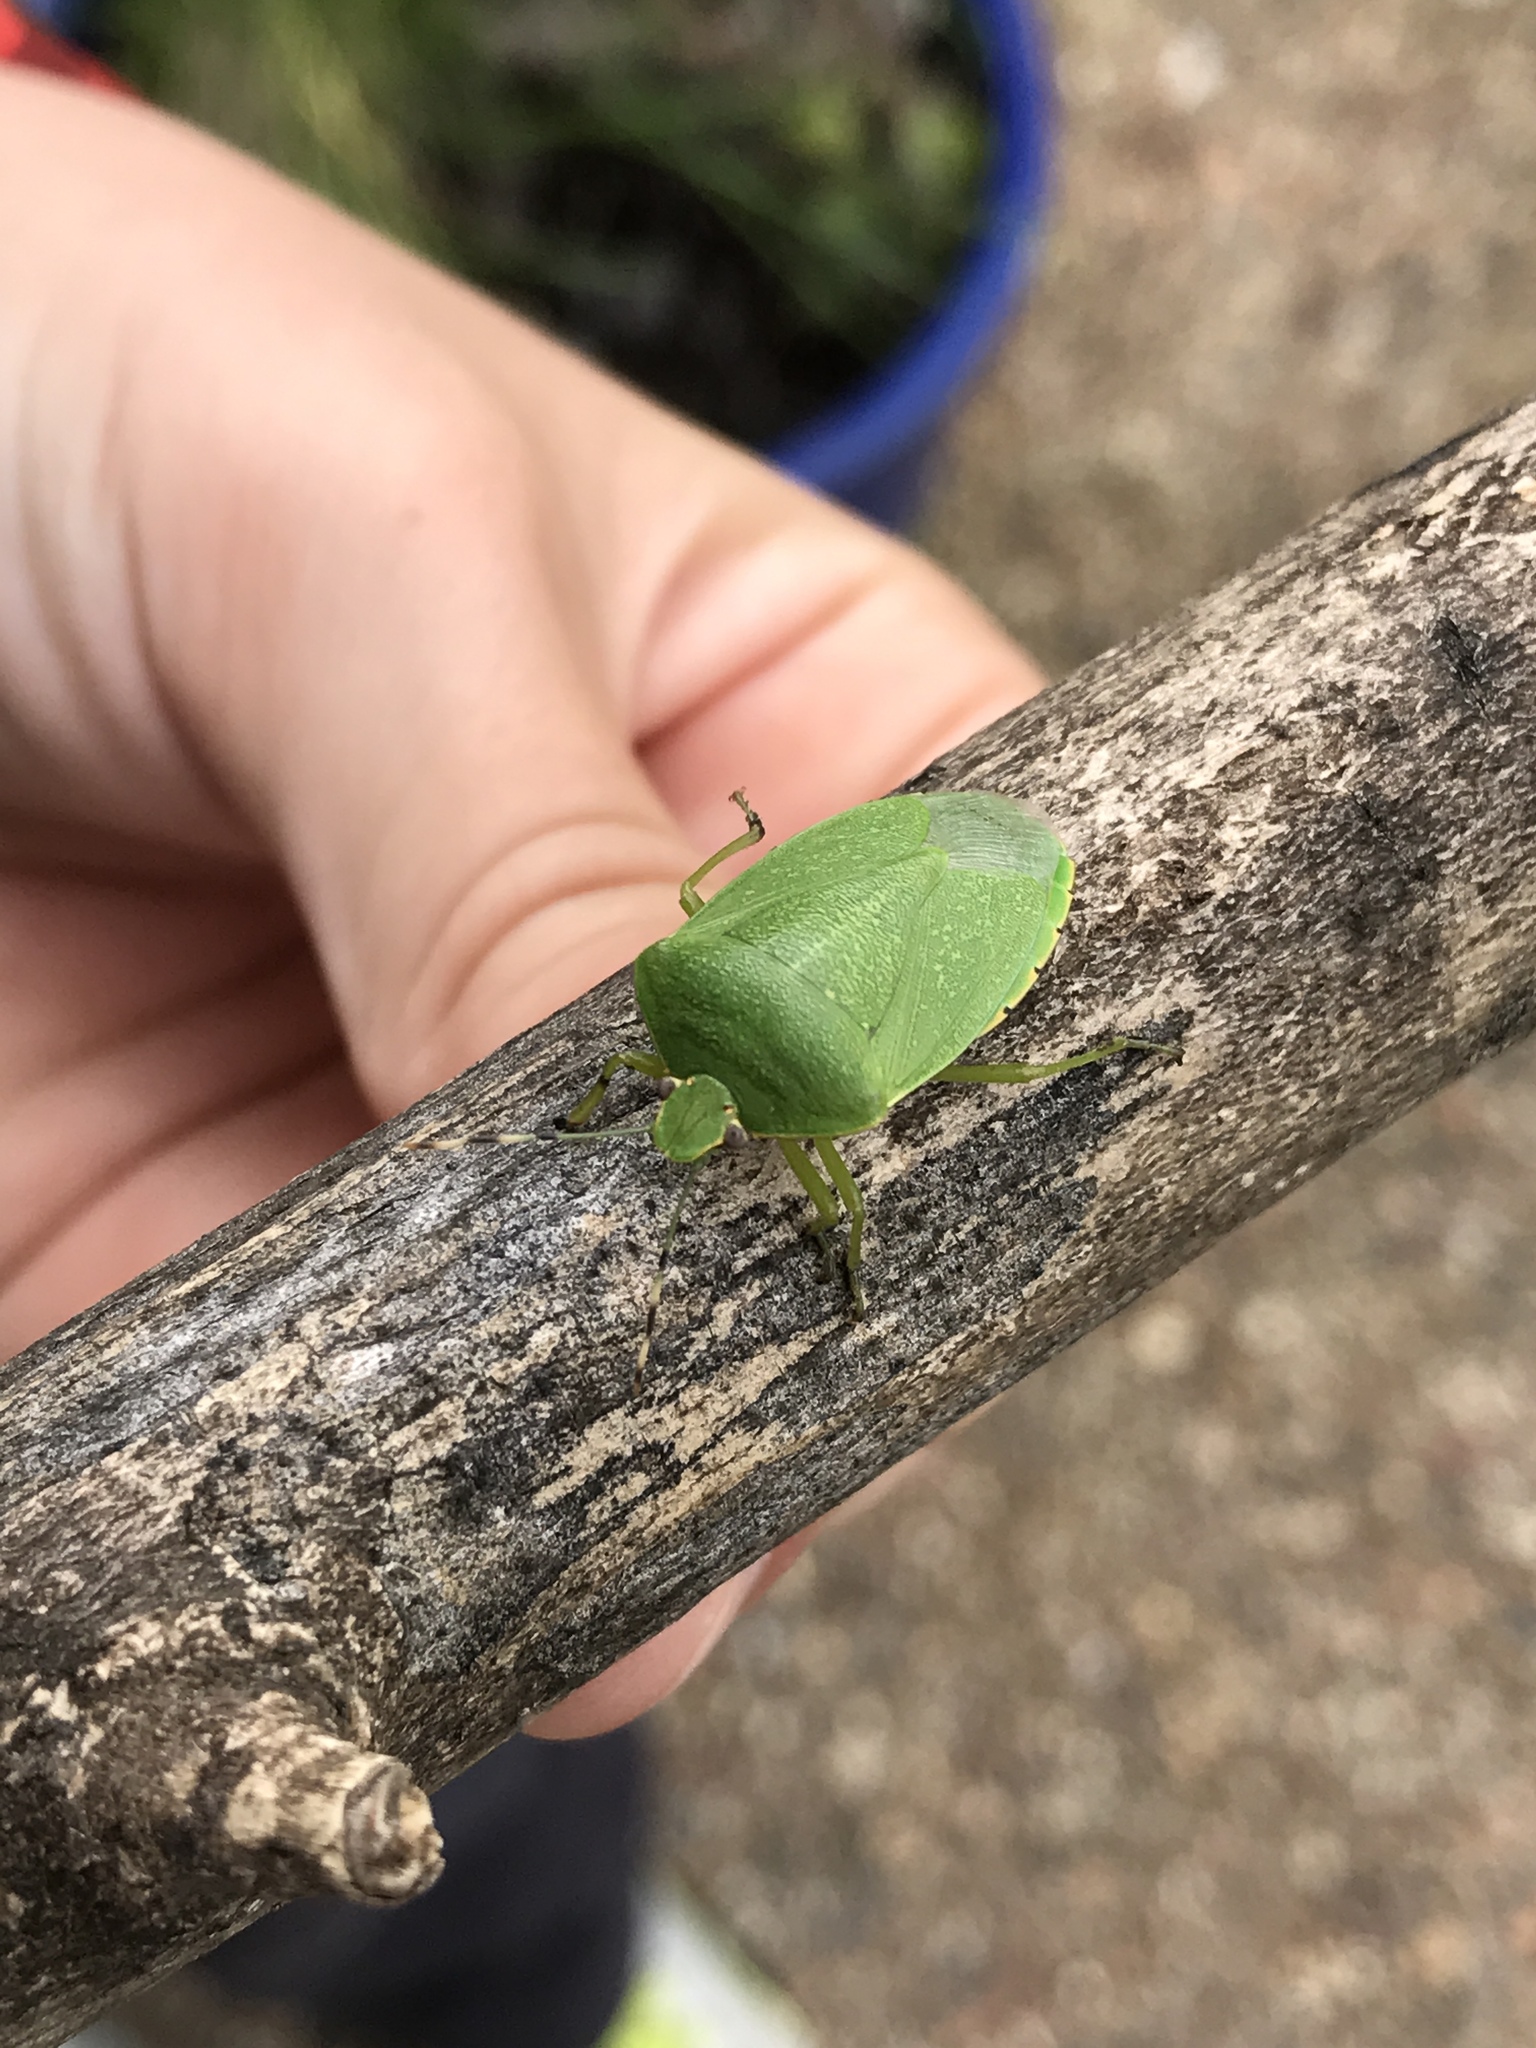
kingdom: Animalia
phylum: Arthropoda
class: Insecta
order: Hemiptera
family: Pentatomidae
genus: Chinavia
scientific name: Chinavia hilaris
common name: Green stink bug
